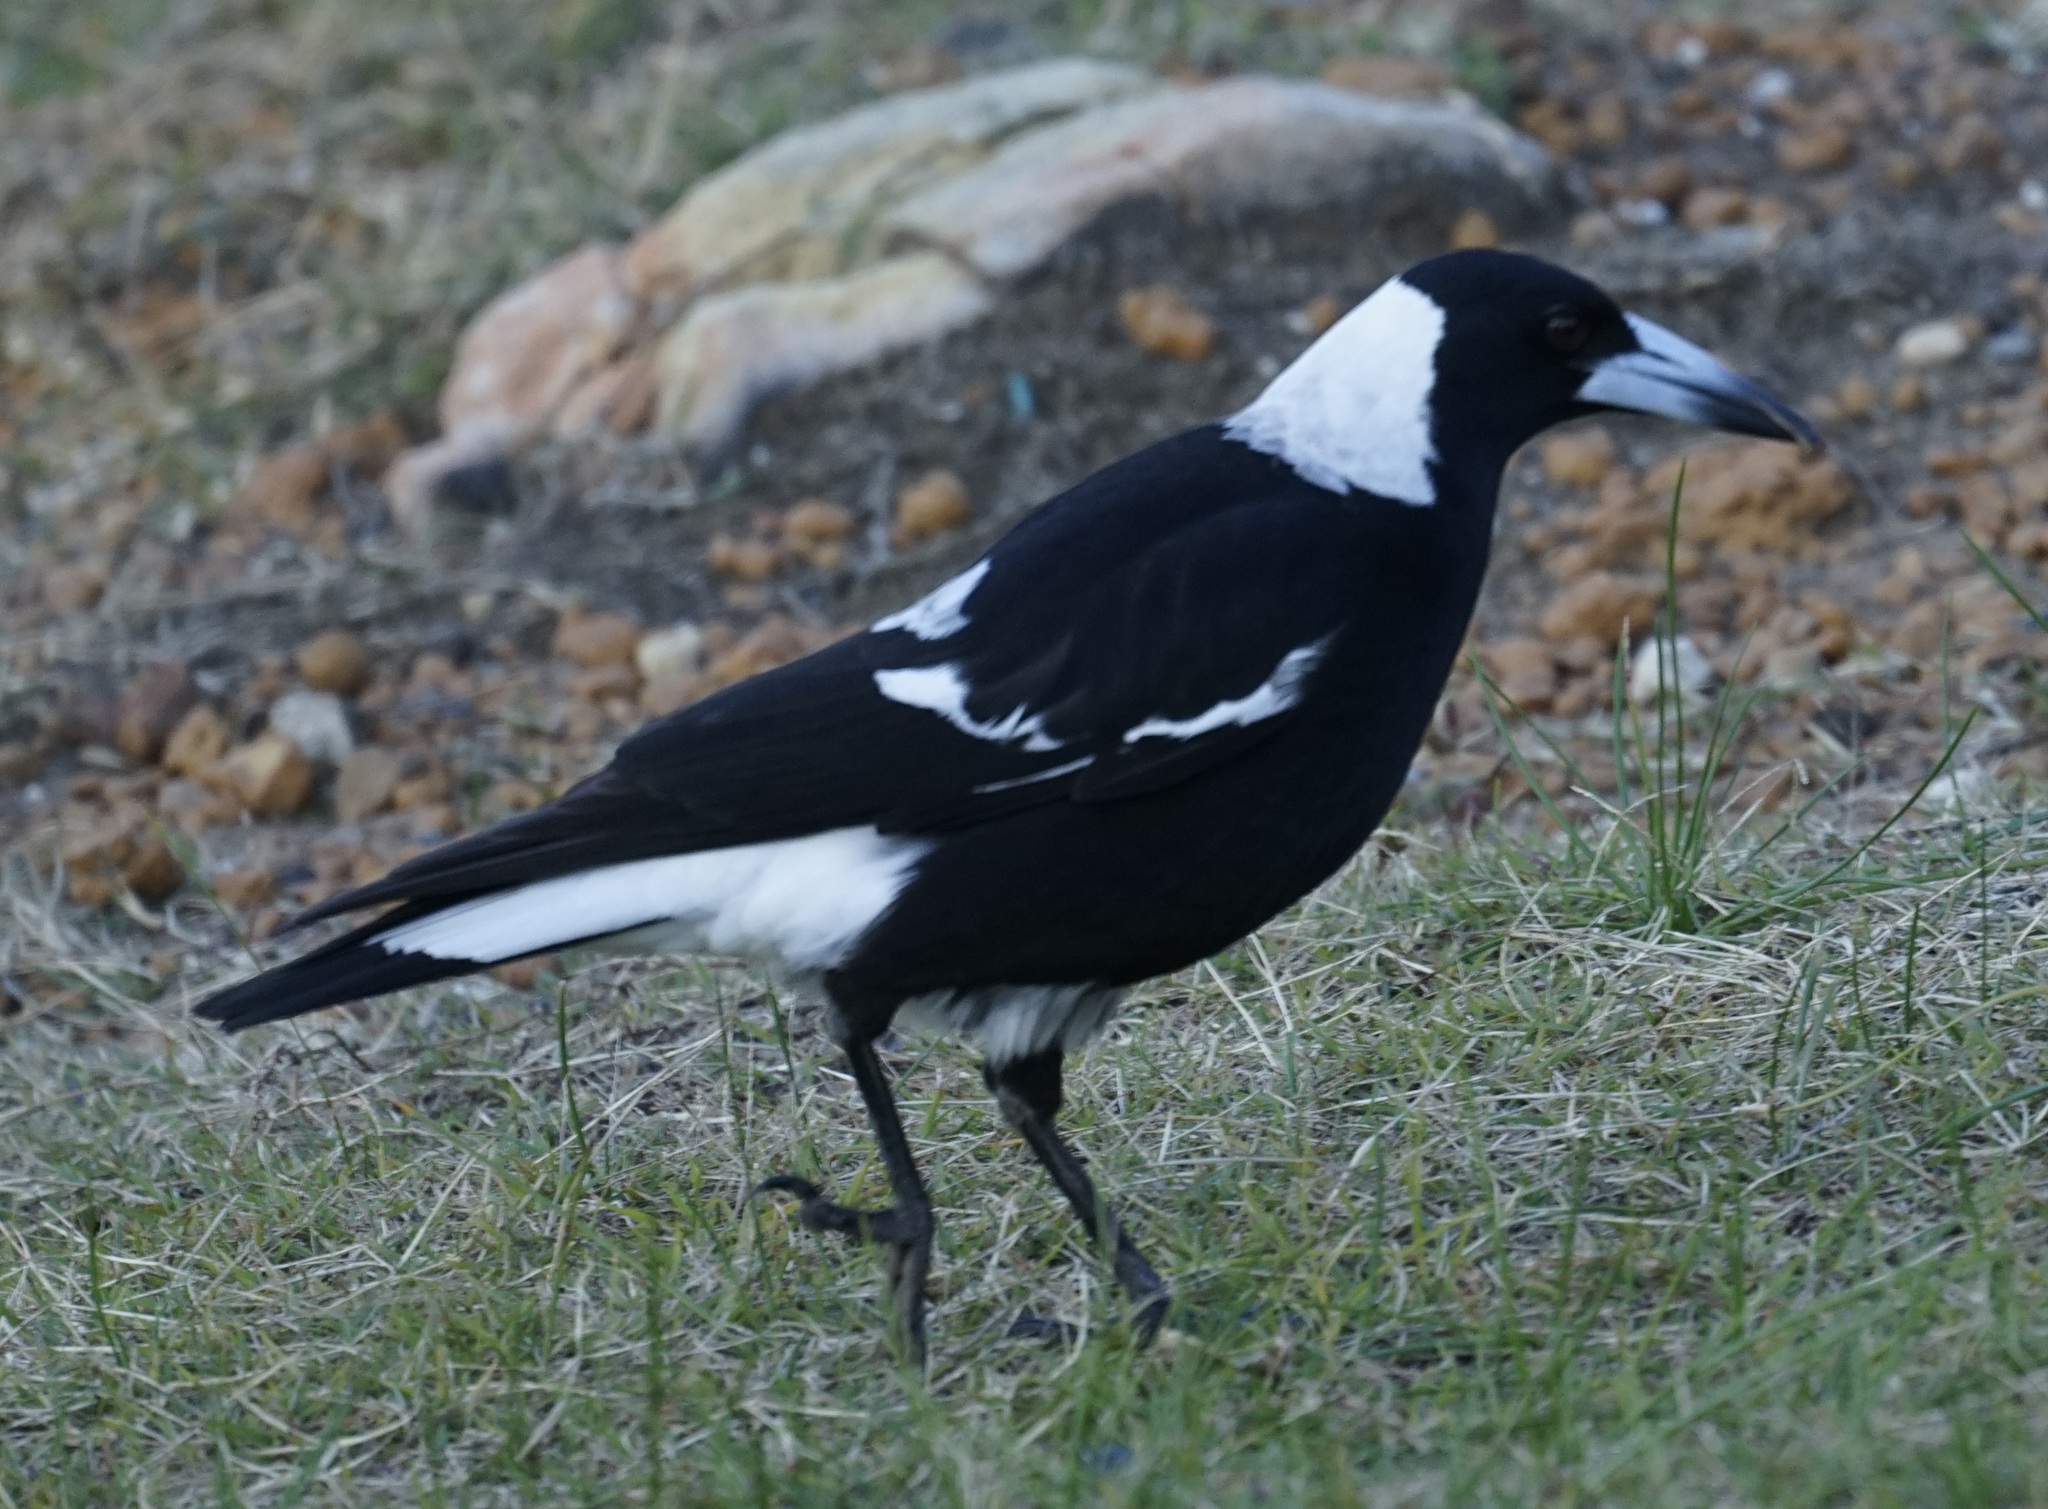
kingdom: Animalia
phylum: Chordata
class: Aves
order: Passeriformes
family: Cracticidae
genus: Gymnorhina
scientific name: Gymnorhina tibicen
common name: Australian magpie
